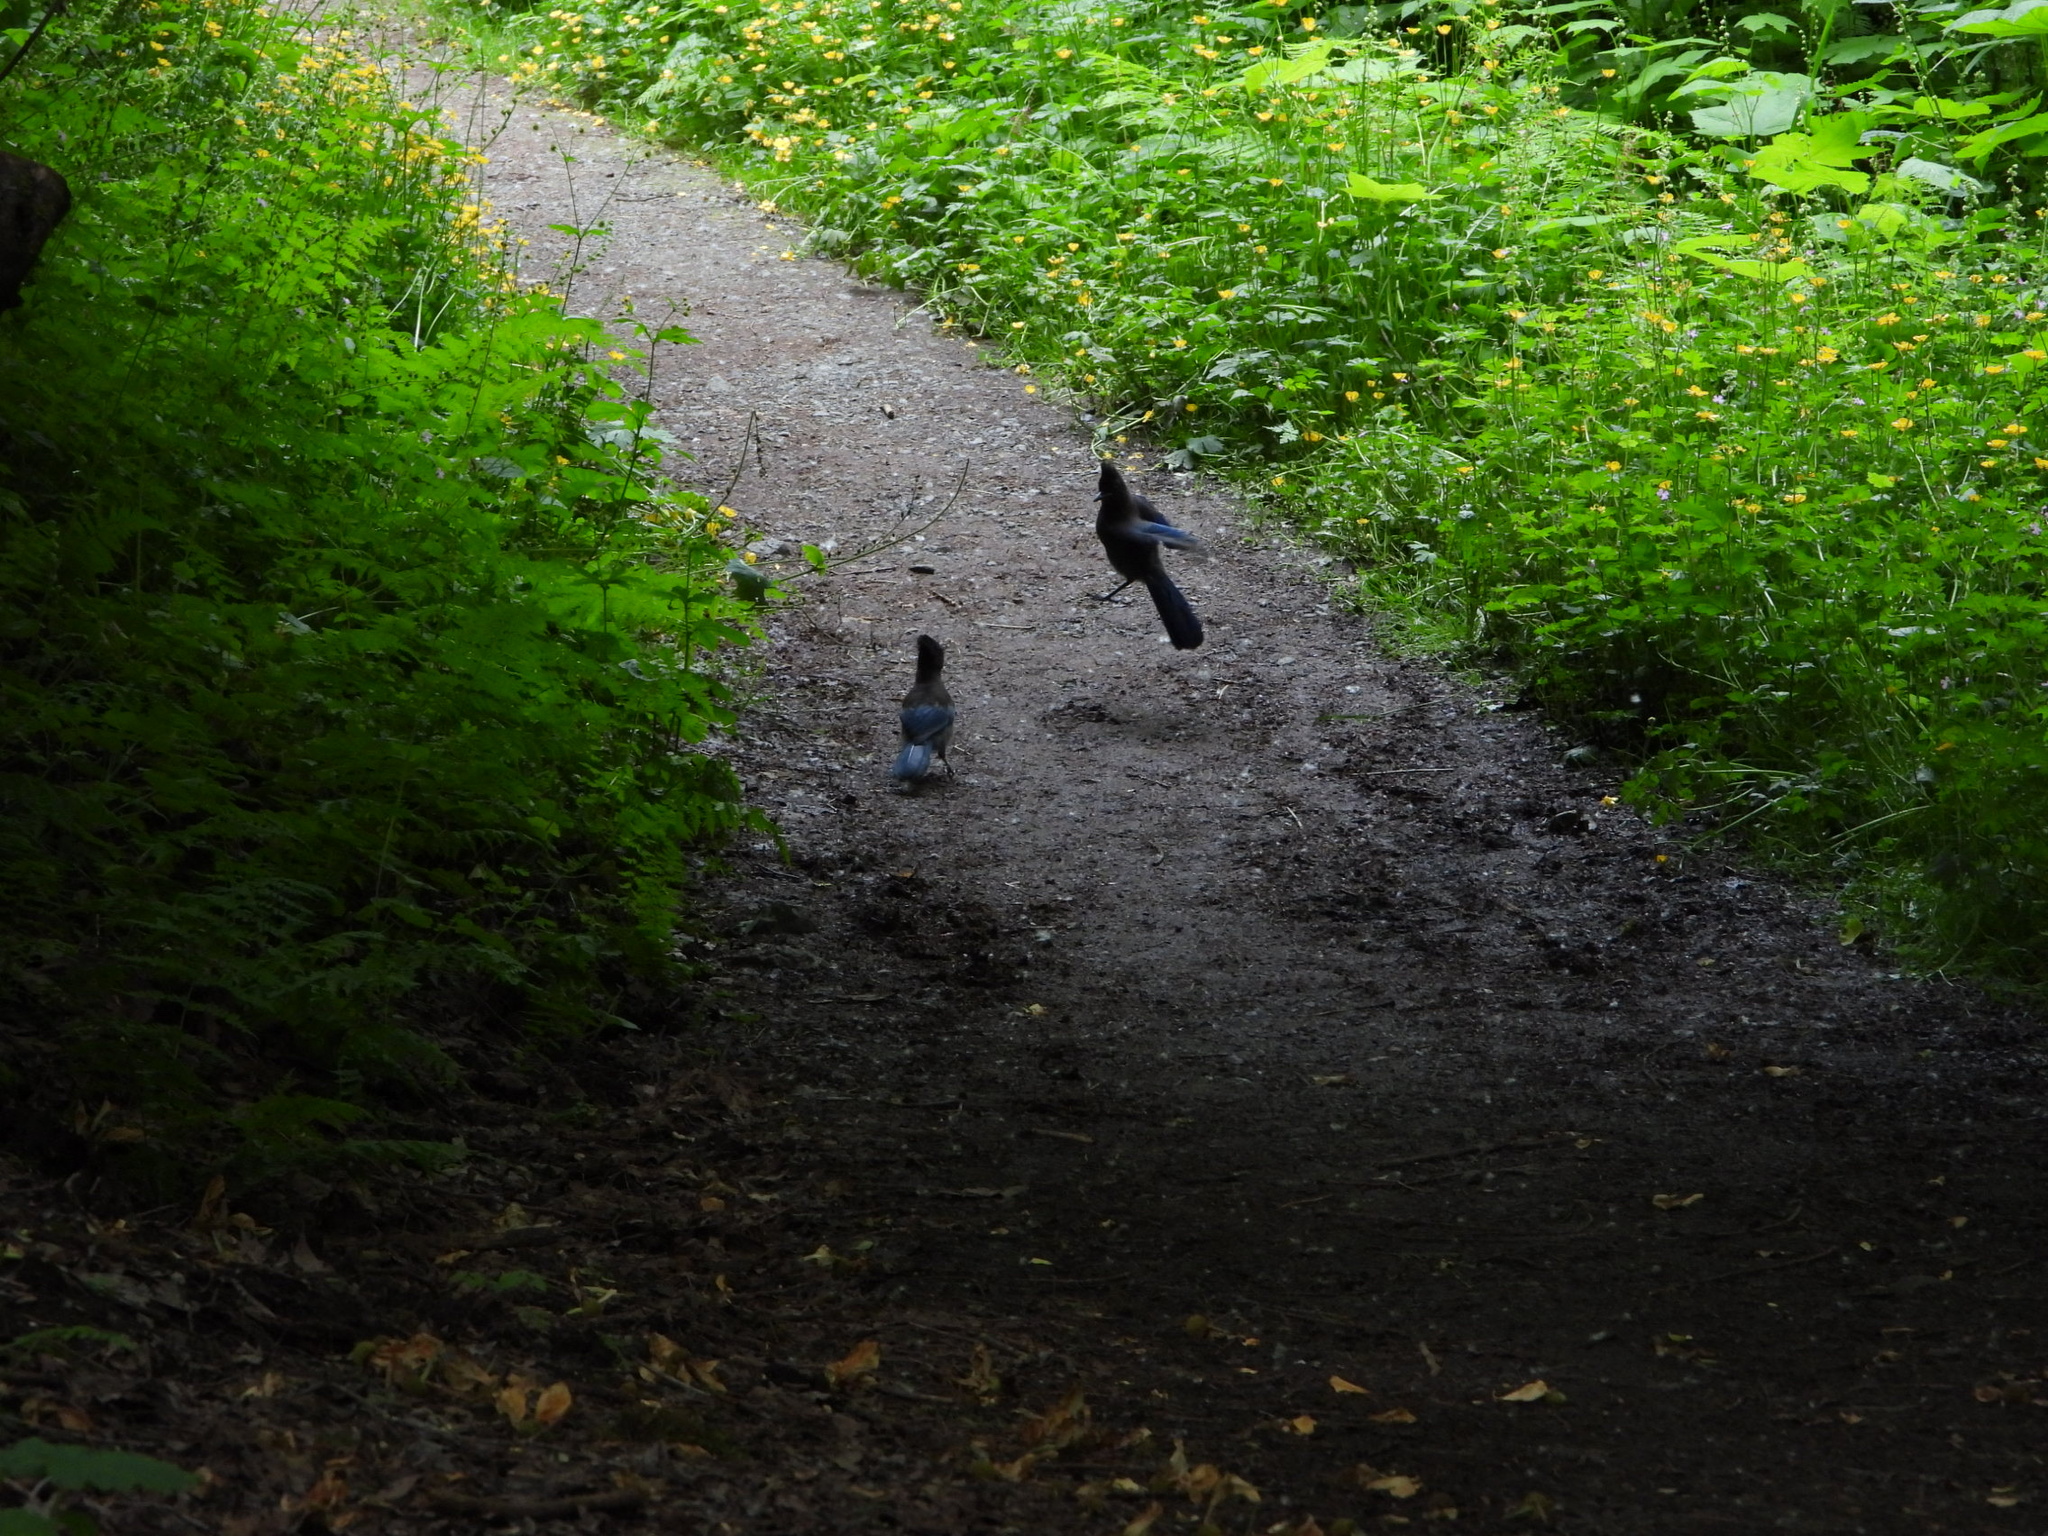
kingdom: Animalia
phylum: Chordata
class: Aves
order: Passeriformes
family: Corvidae
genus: Cyanocitta
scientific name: Cyanocitta stelleri
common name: Steller's jay
